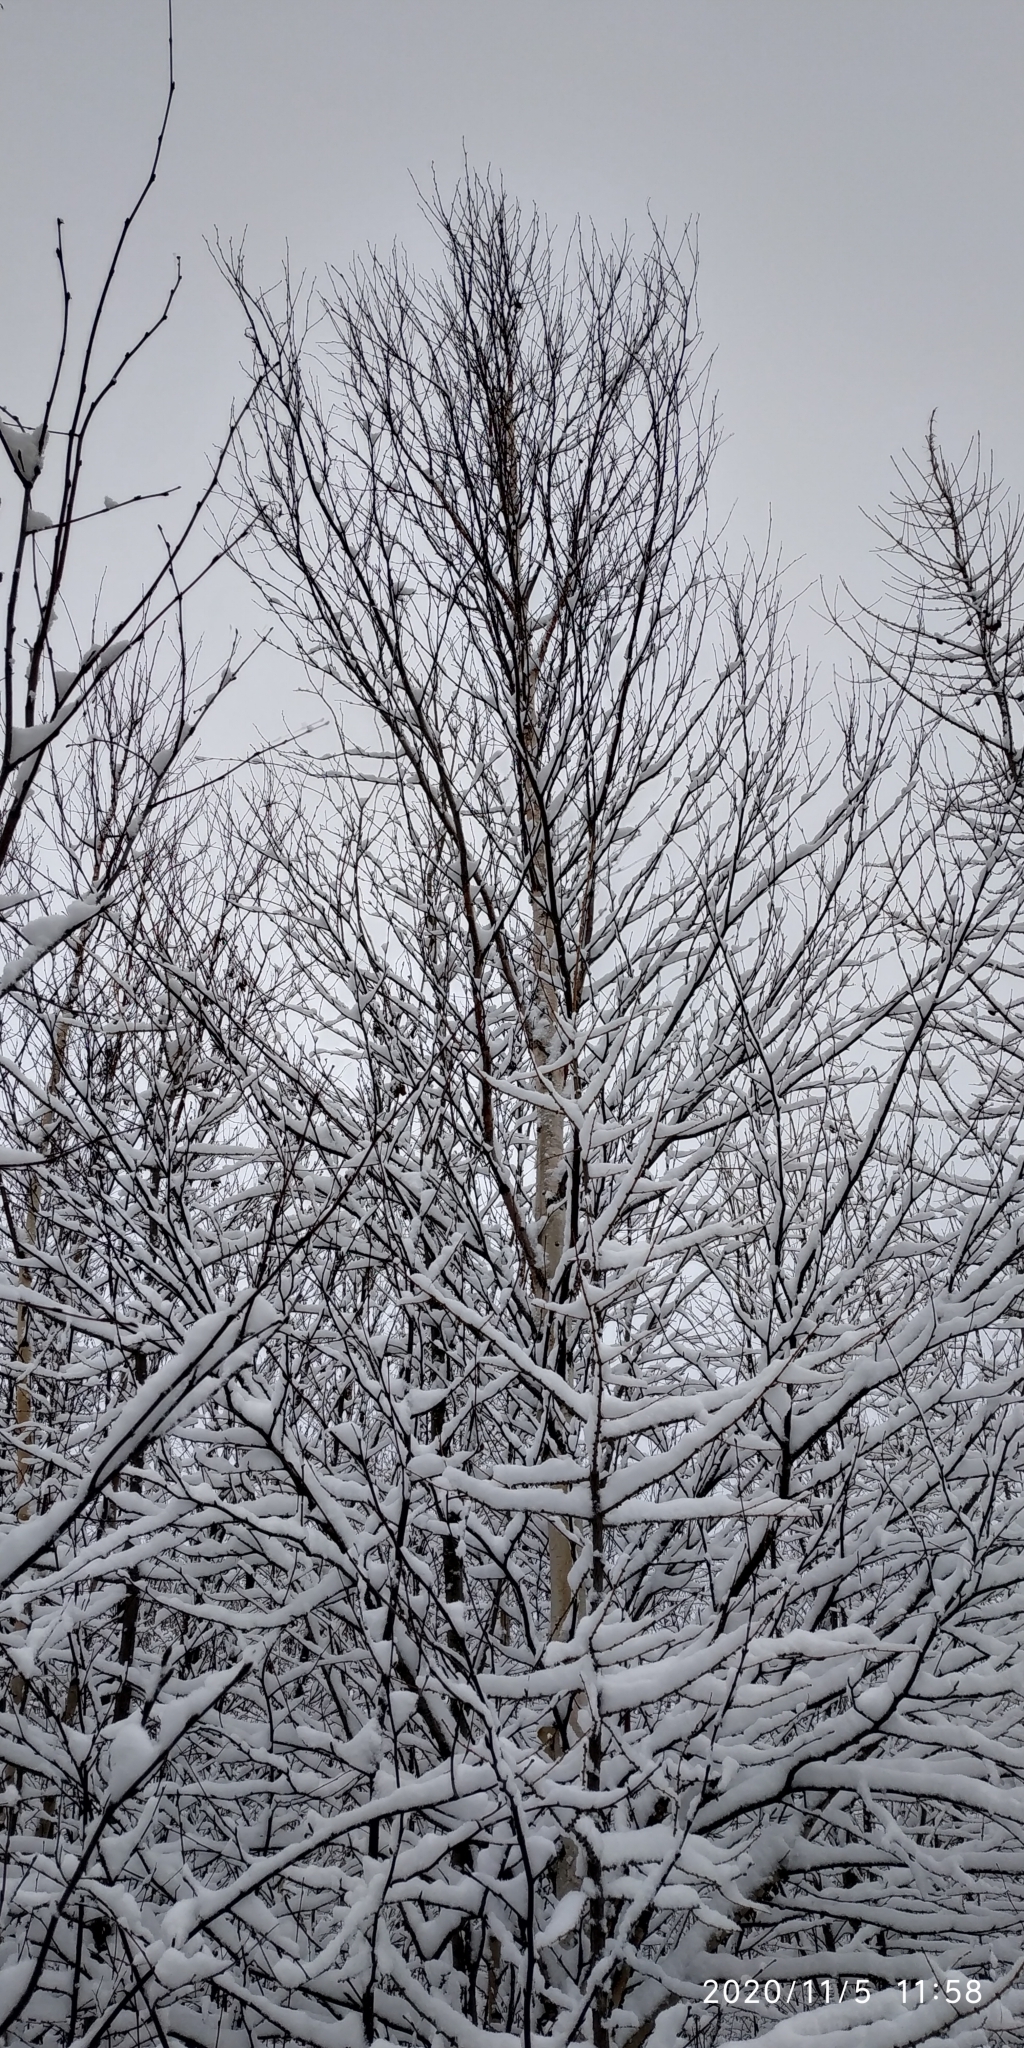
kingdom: Plantae
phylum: Tracheophyta
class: Magnoliopsida
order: Fagales
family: Betulaceae
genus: Betula
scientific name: Betula pubescens
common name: Downy birch
